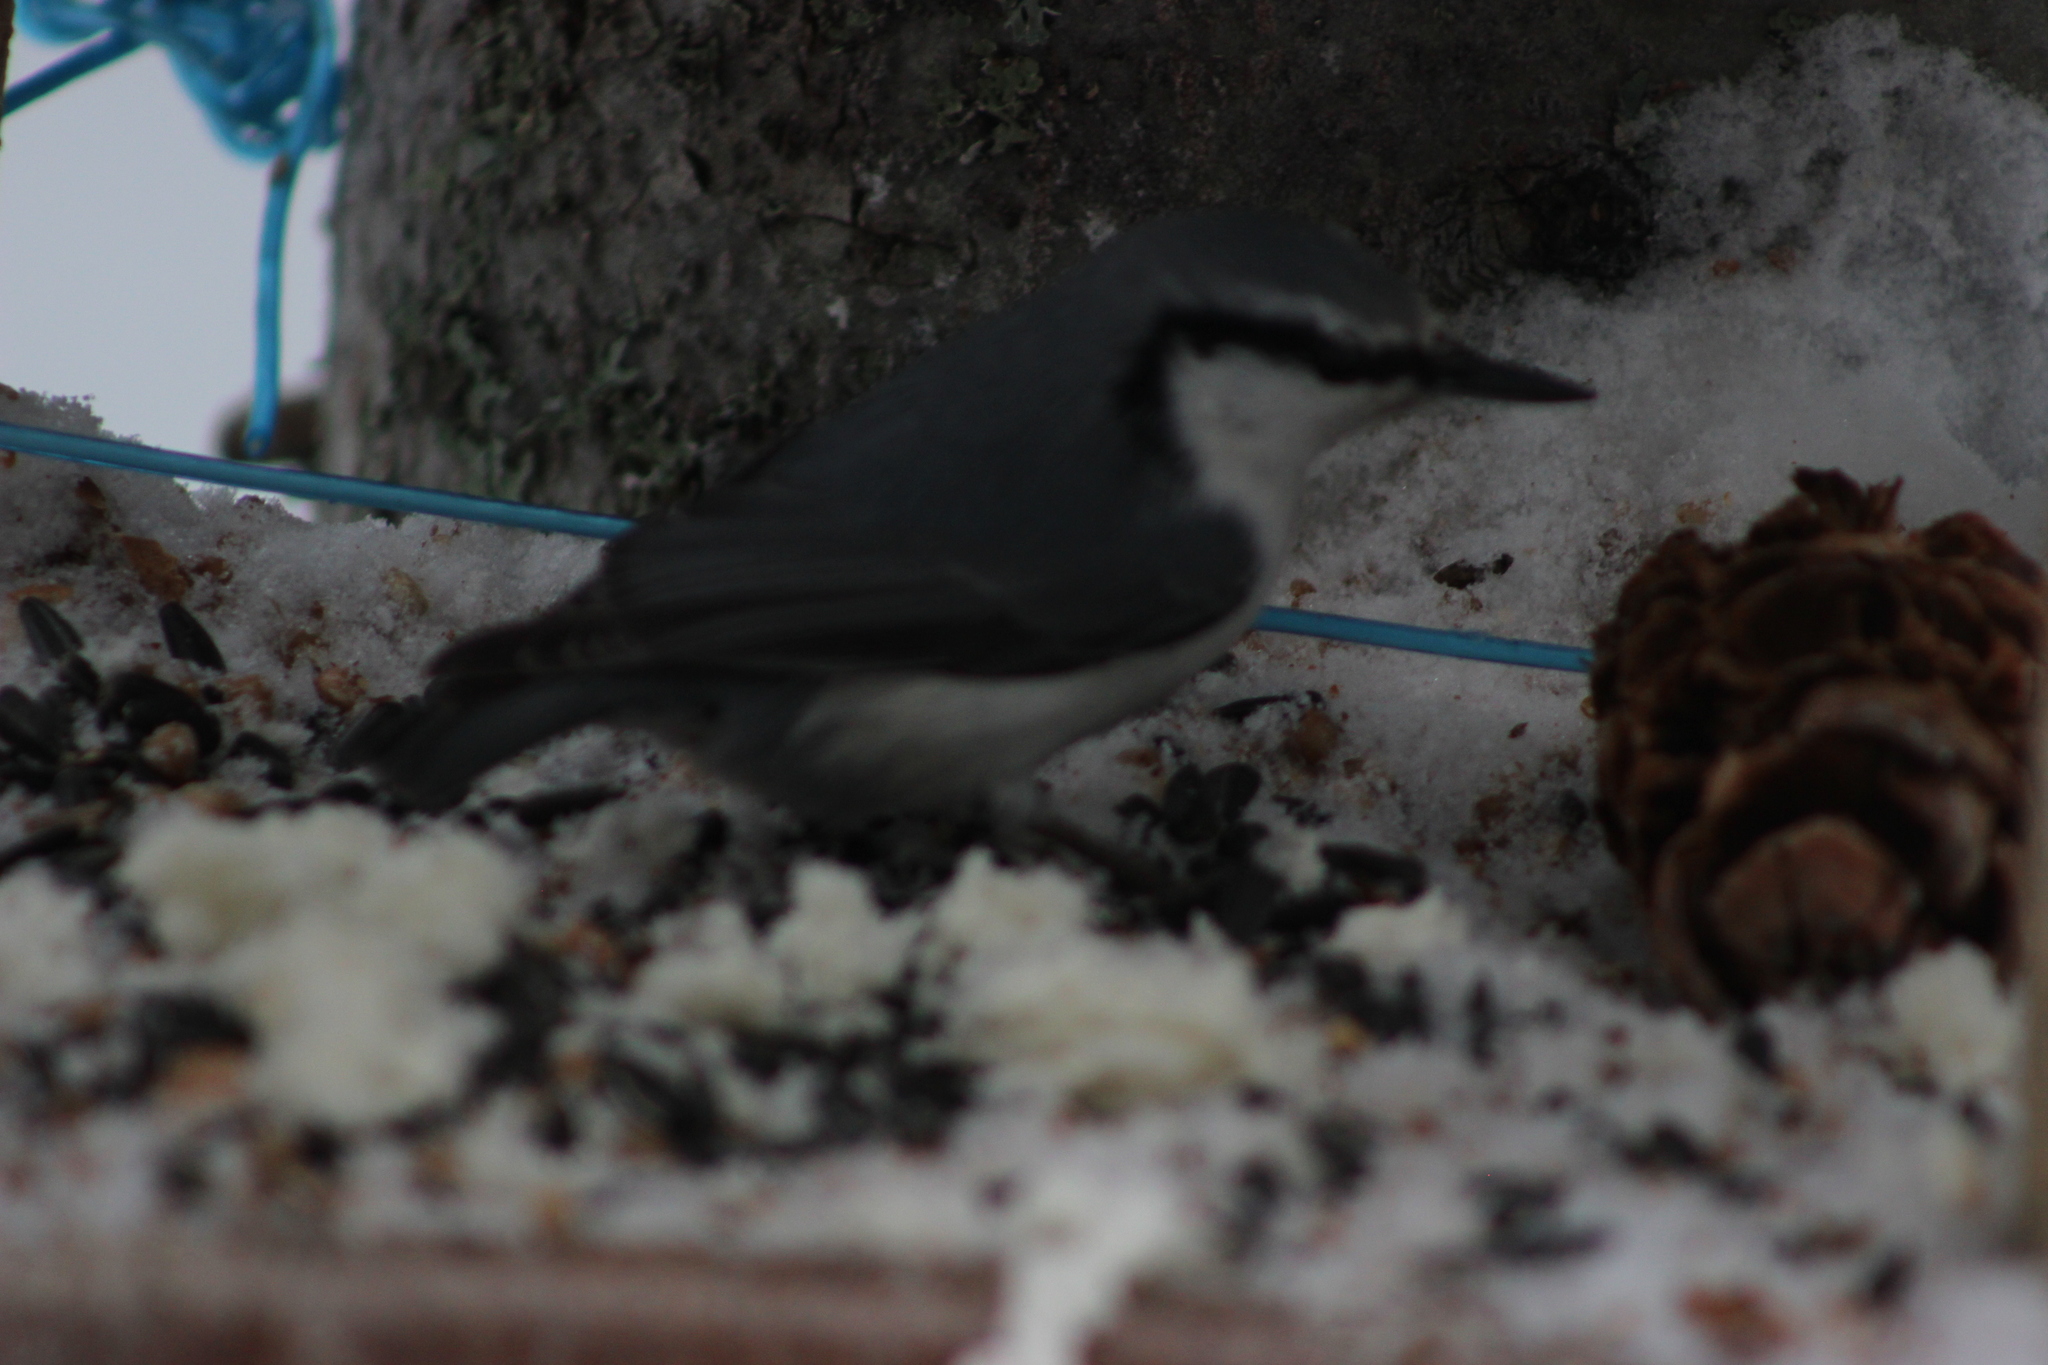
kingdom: Animalia
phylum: Chordata
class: Aves
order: Passeriformes
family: Sittidae
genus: Sitta
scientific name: Sitta europaea
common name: Eurasian nuthatch
